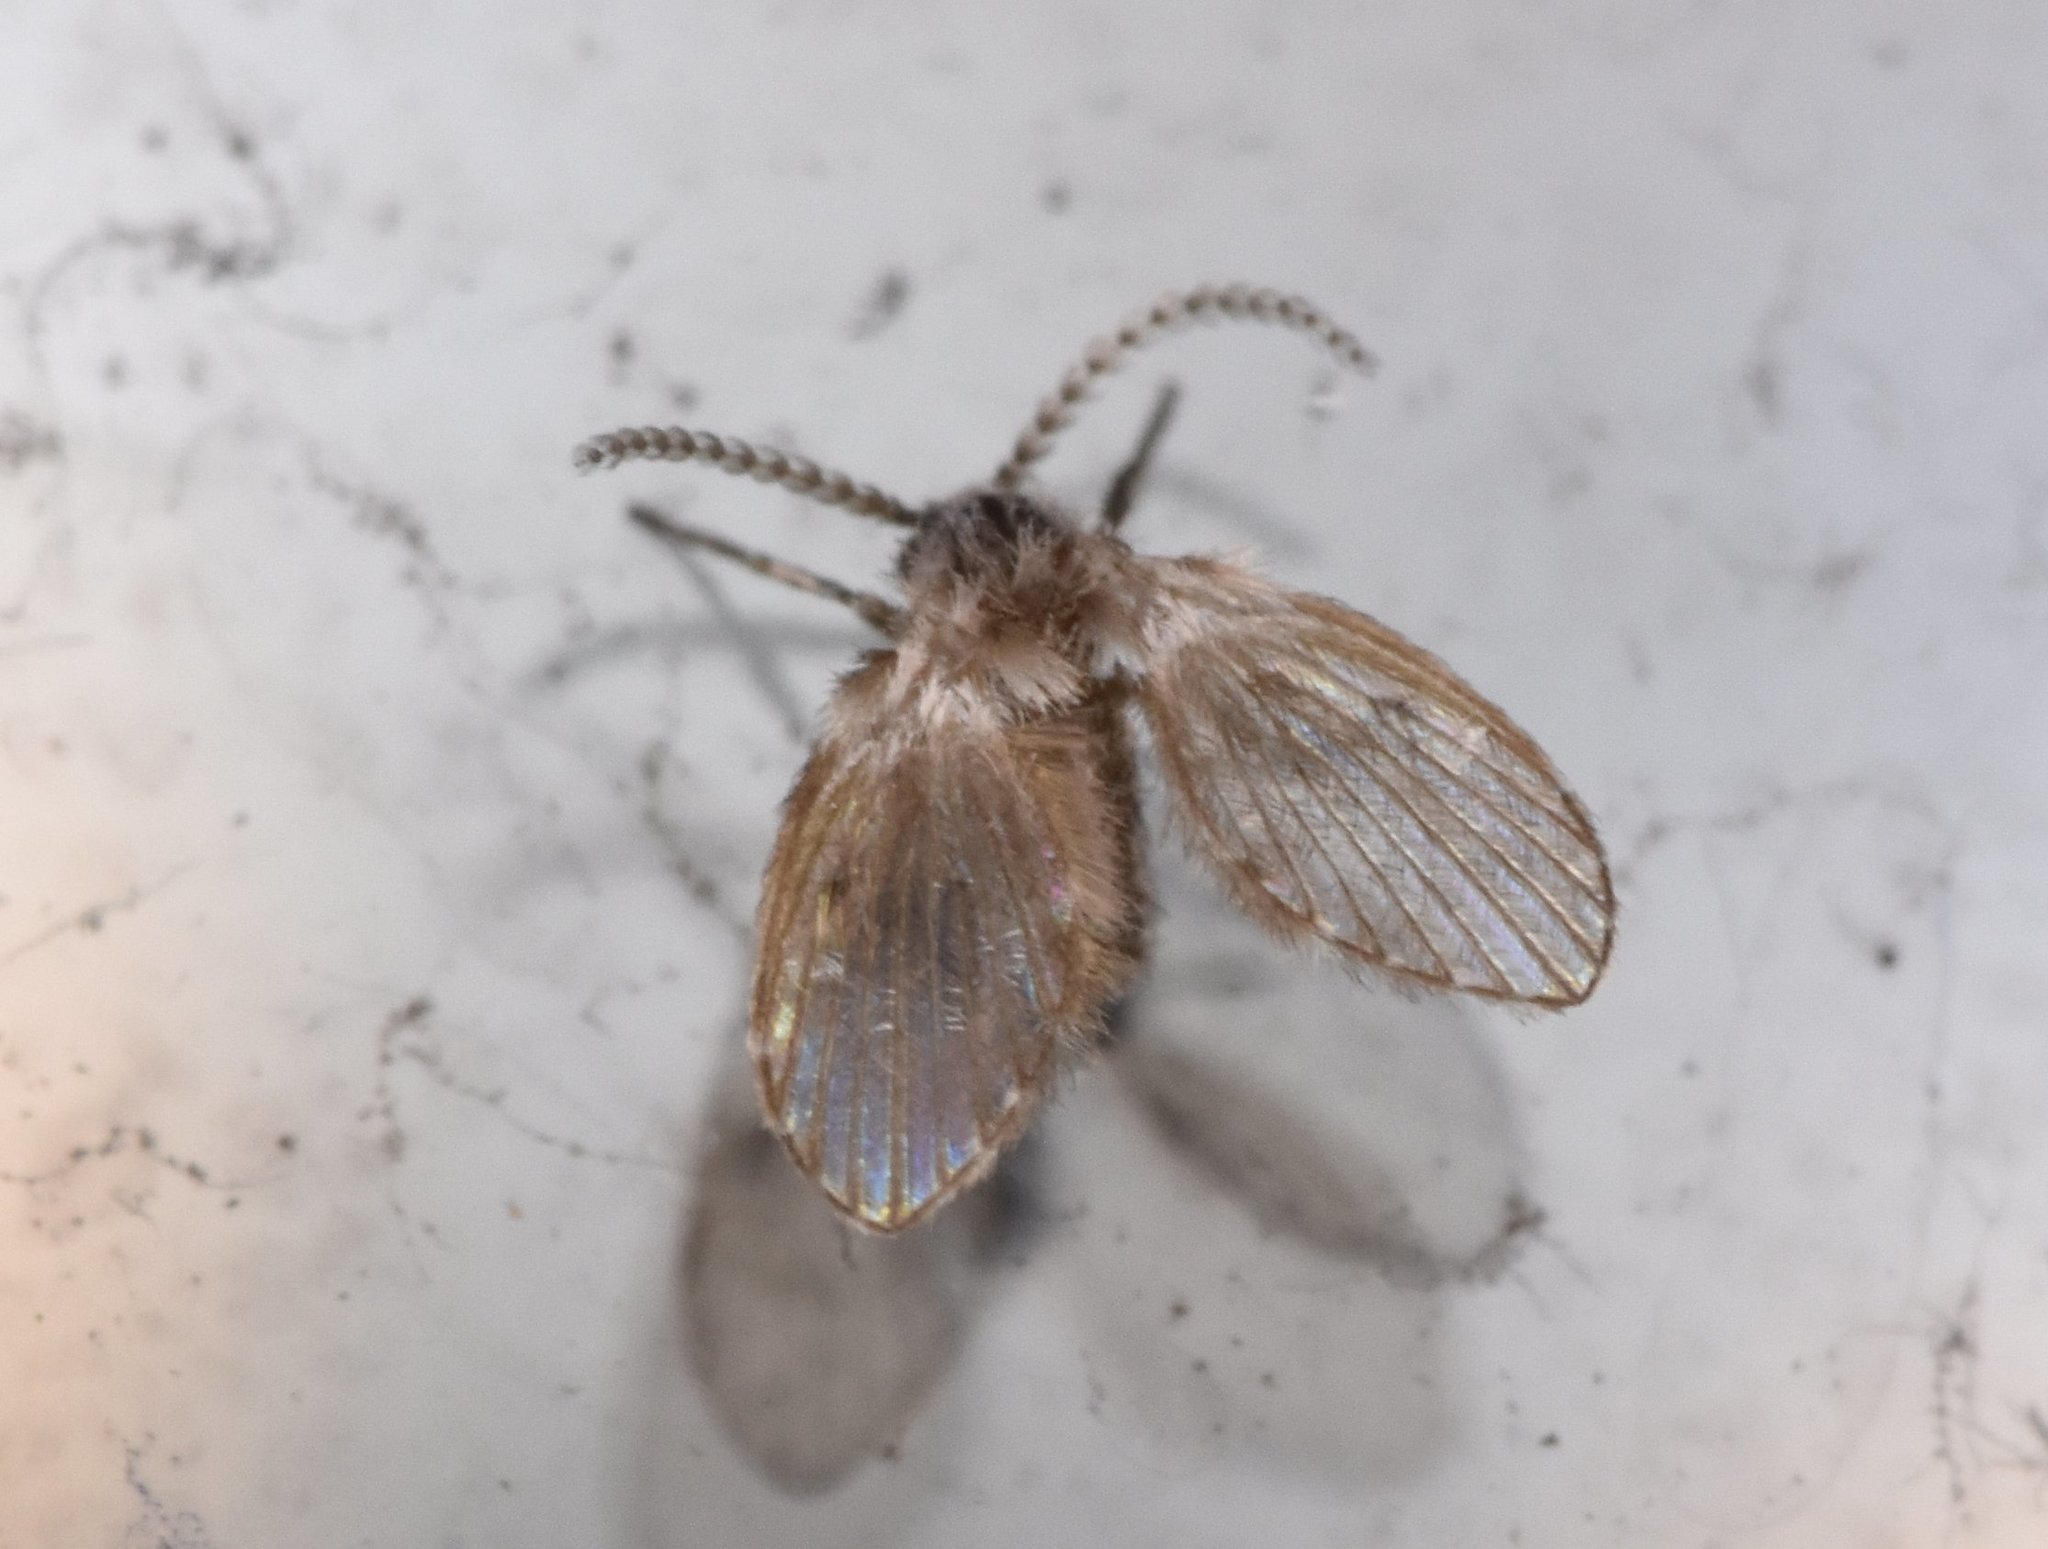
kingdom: Animalia
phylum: Arthropoda
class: Insecta
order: Diptera
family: Psychodidae
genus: Clogmia
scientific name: Clogmia albipunctatus
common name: White-spotted moth fly
